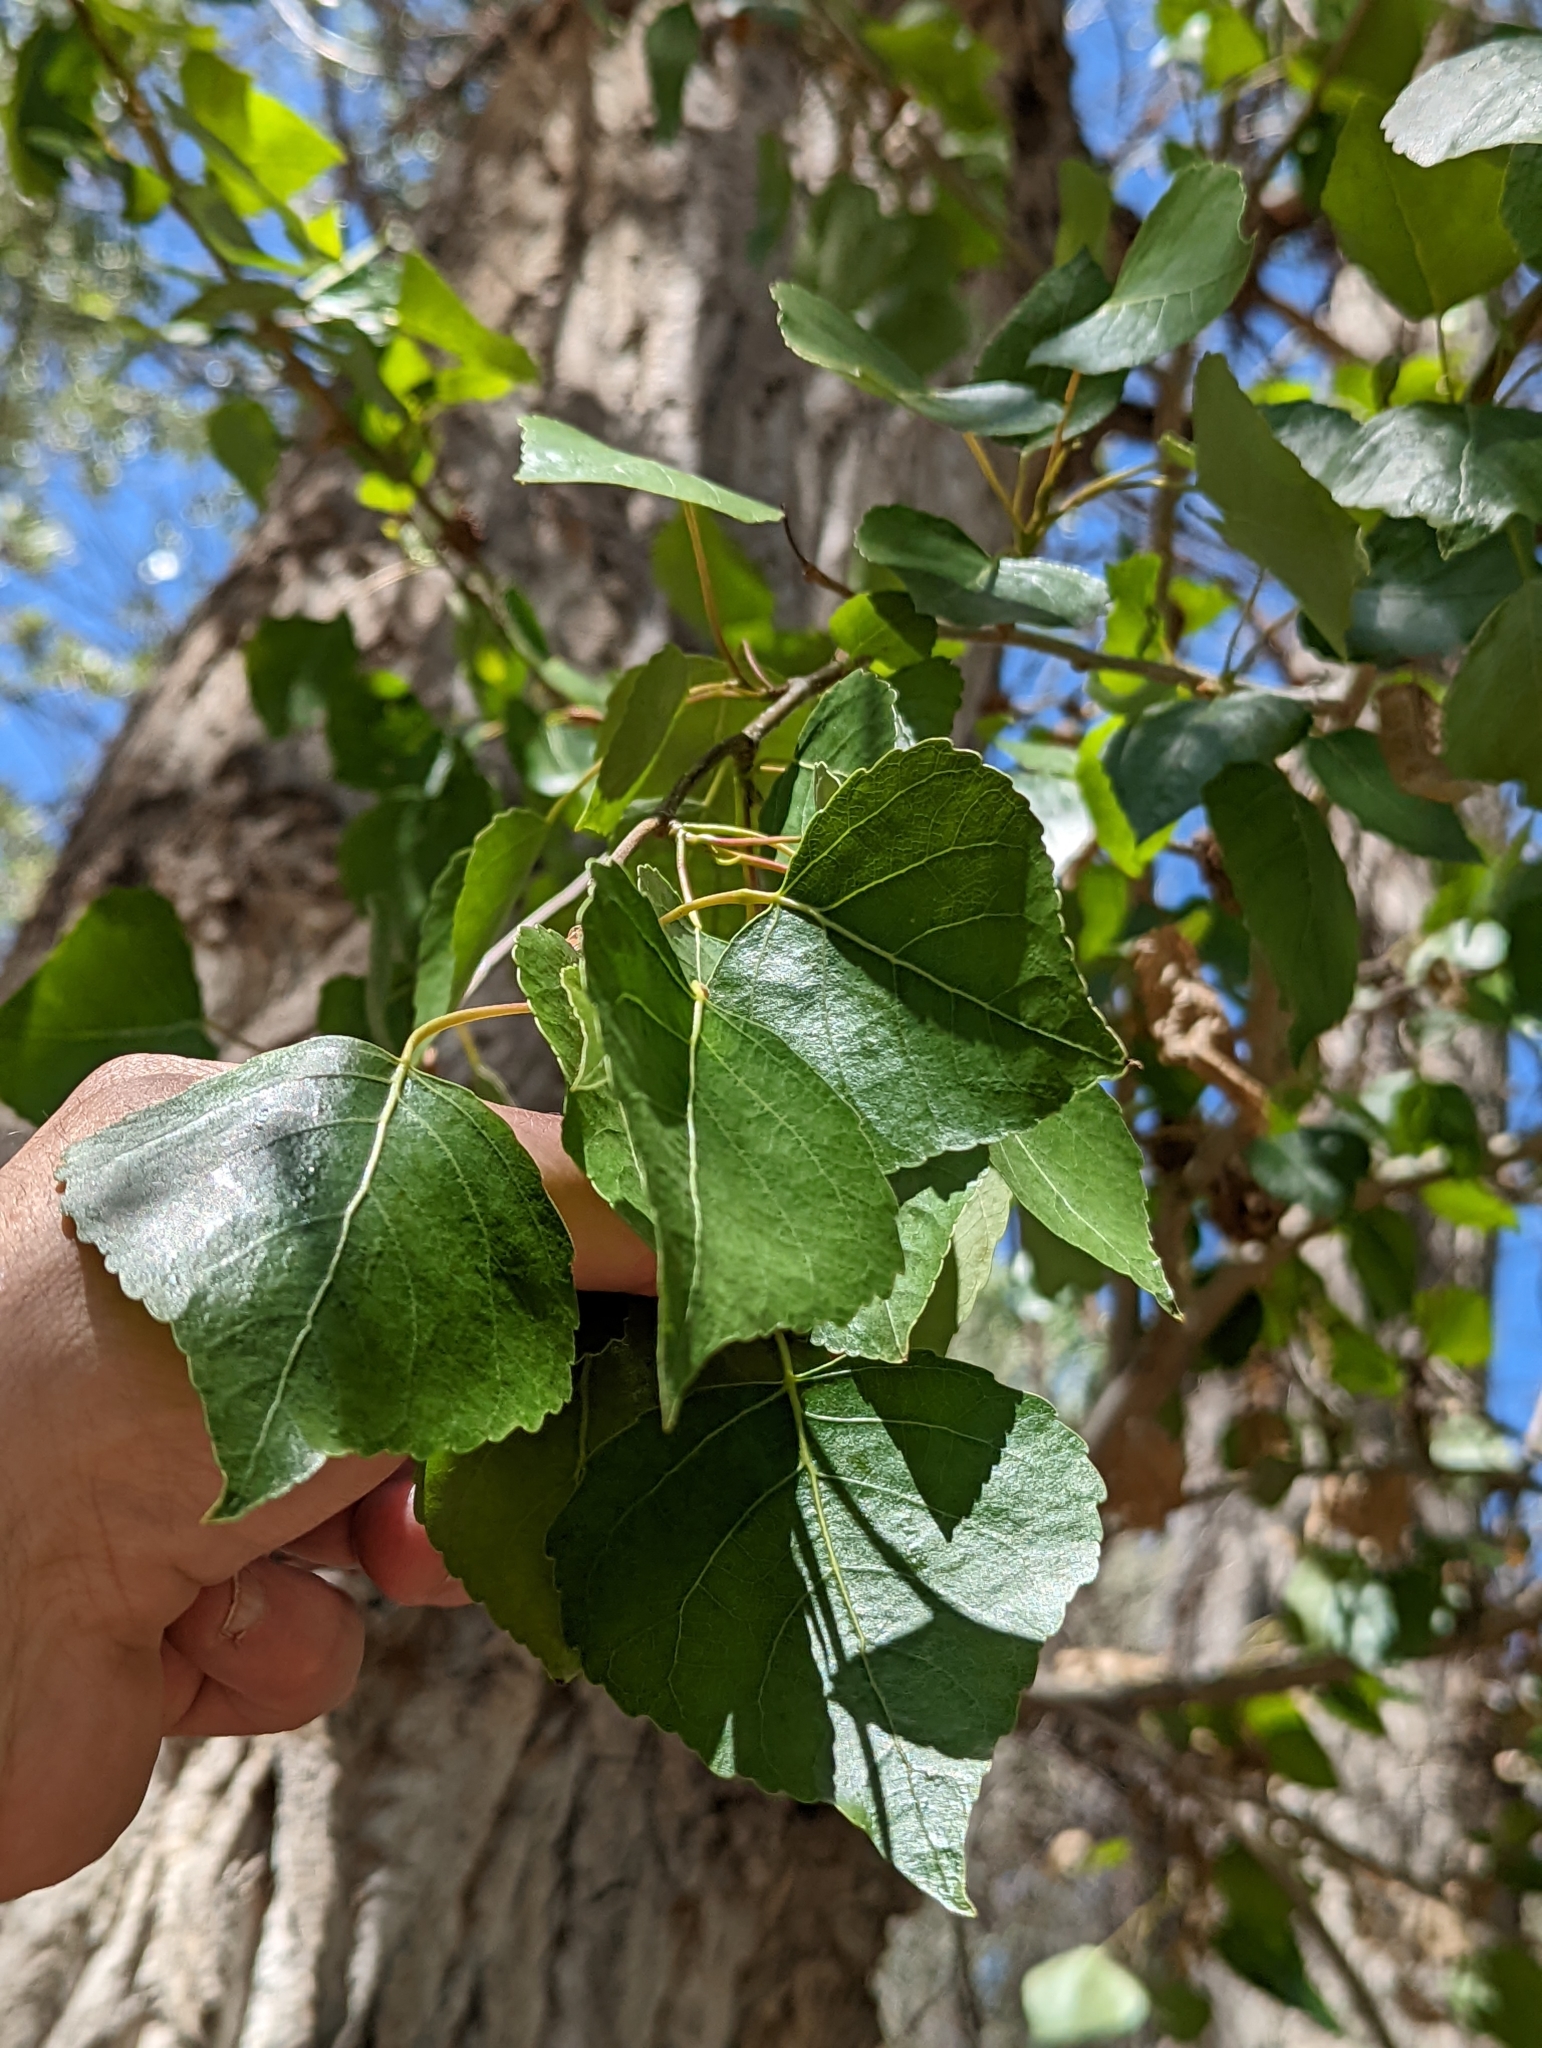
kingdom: Plantae
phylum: Tracheophyta
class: Magnoliopsida
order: Malpighiales
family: Salicaceae
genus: Populus
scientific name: Populus fremontii
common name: Fremont's cottonwood
